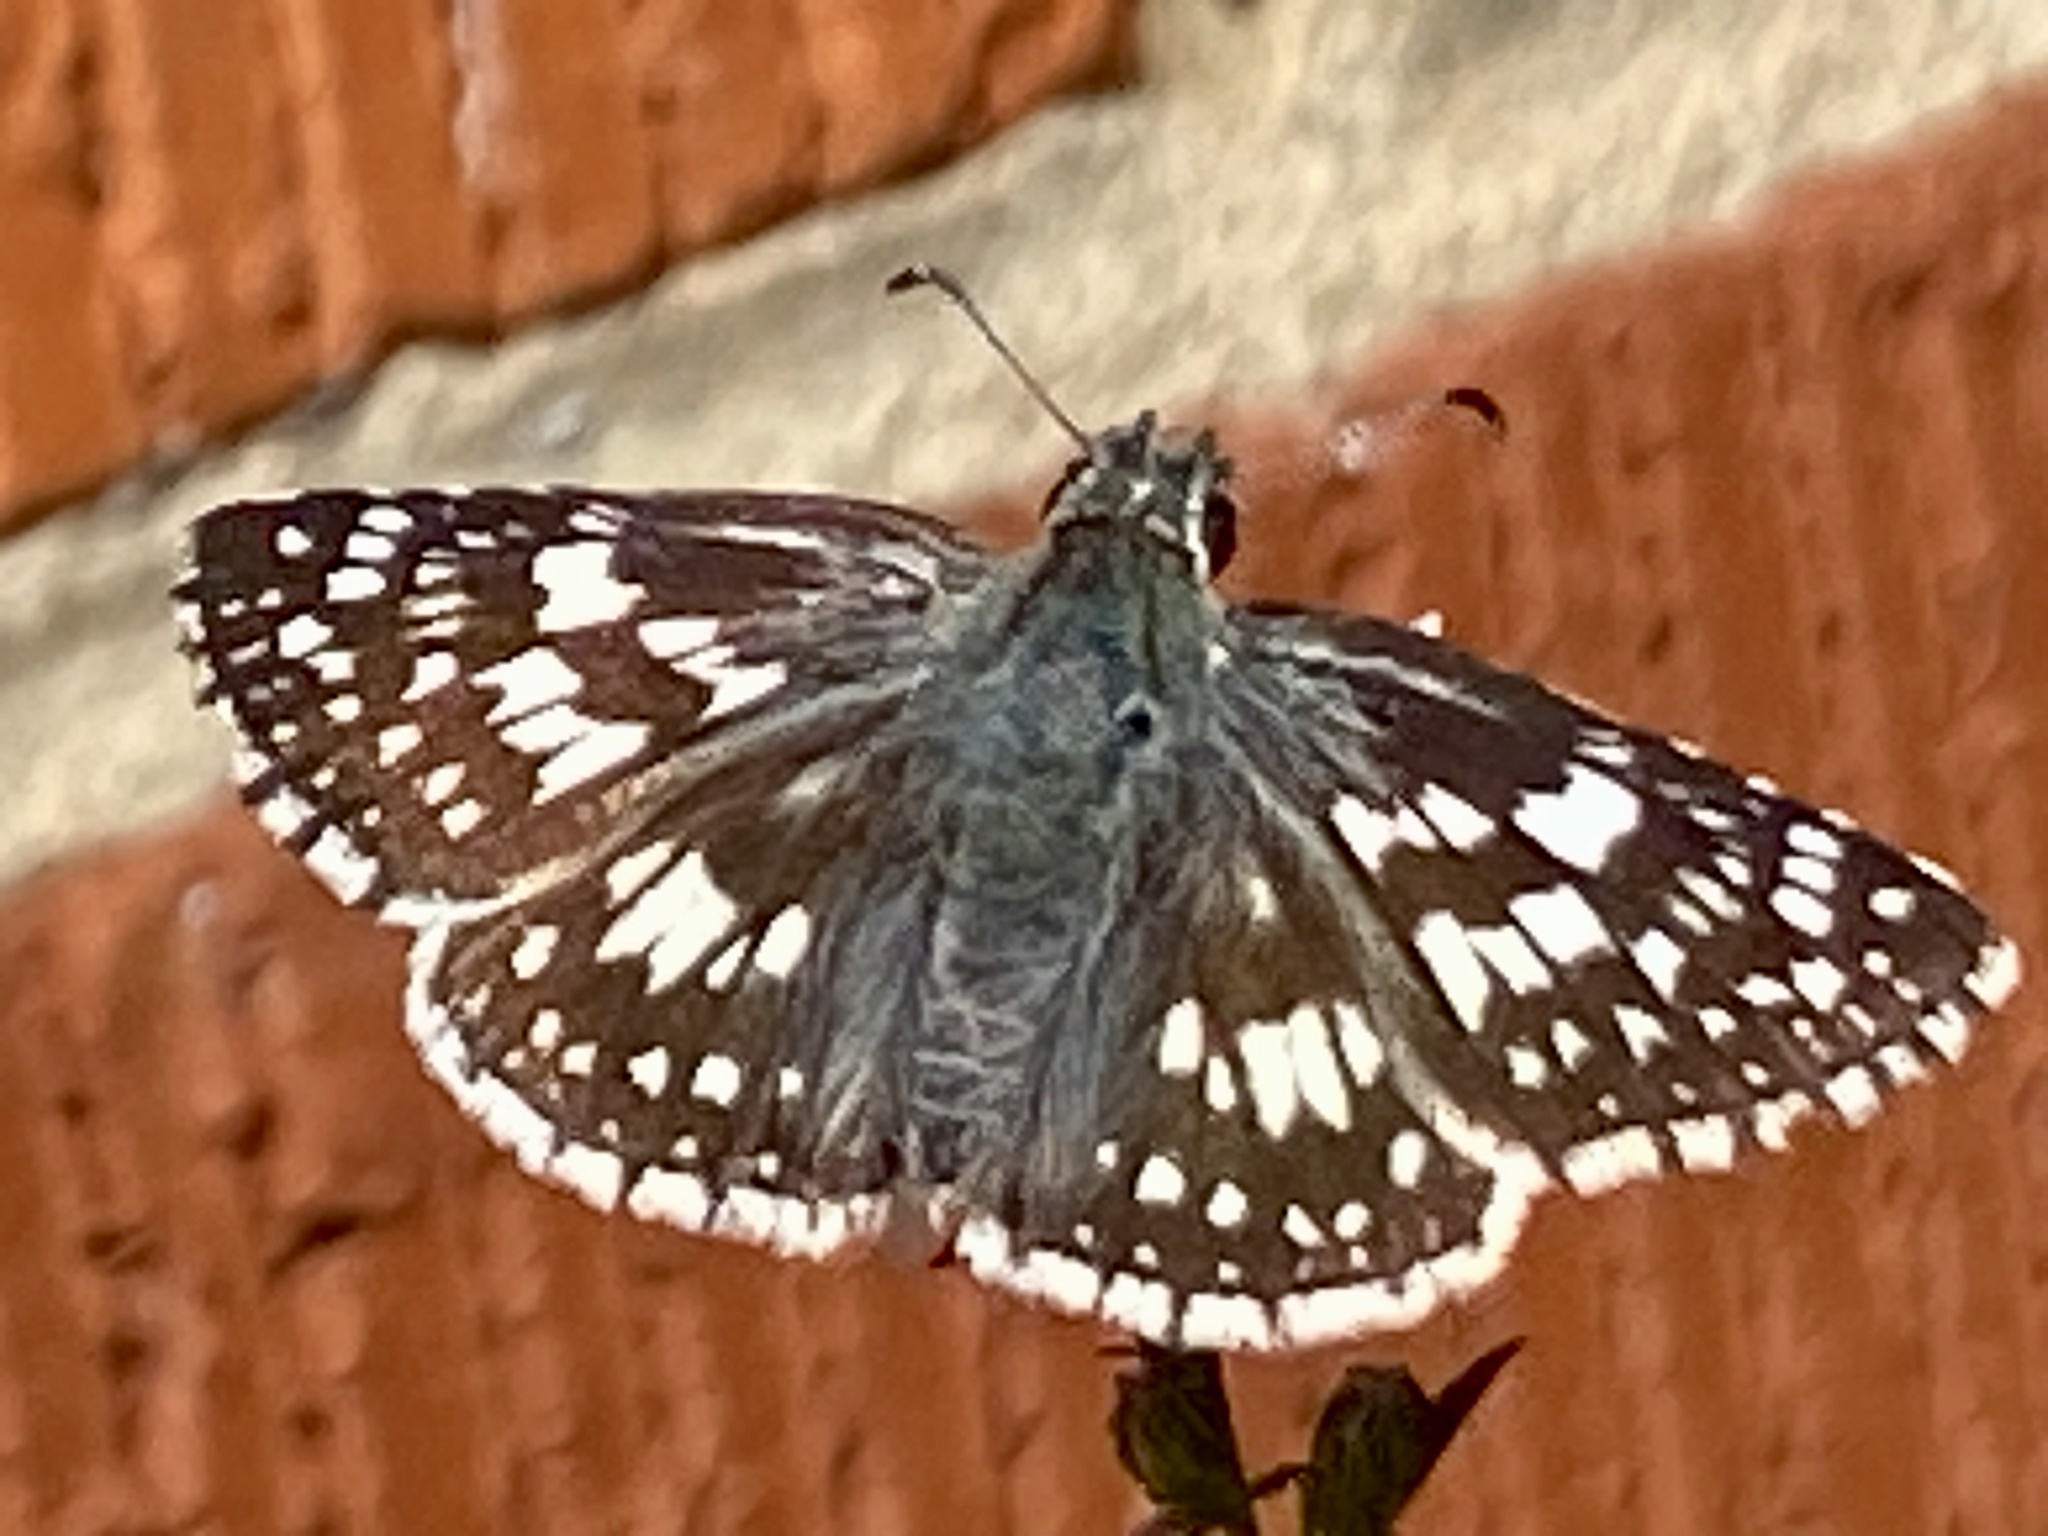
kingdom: Animalia
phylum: Arthropoda
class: Insecta
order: Lepidoptera
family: Hesperiidae
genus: Burnsius
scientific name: Burnsius communis
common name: Common checkered-skipper
